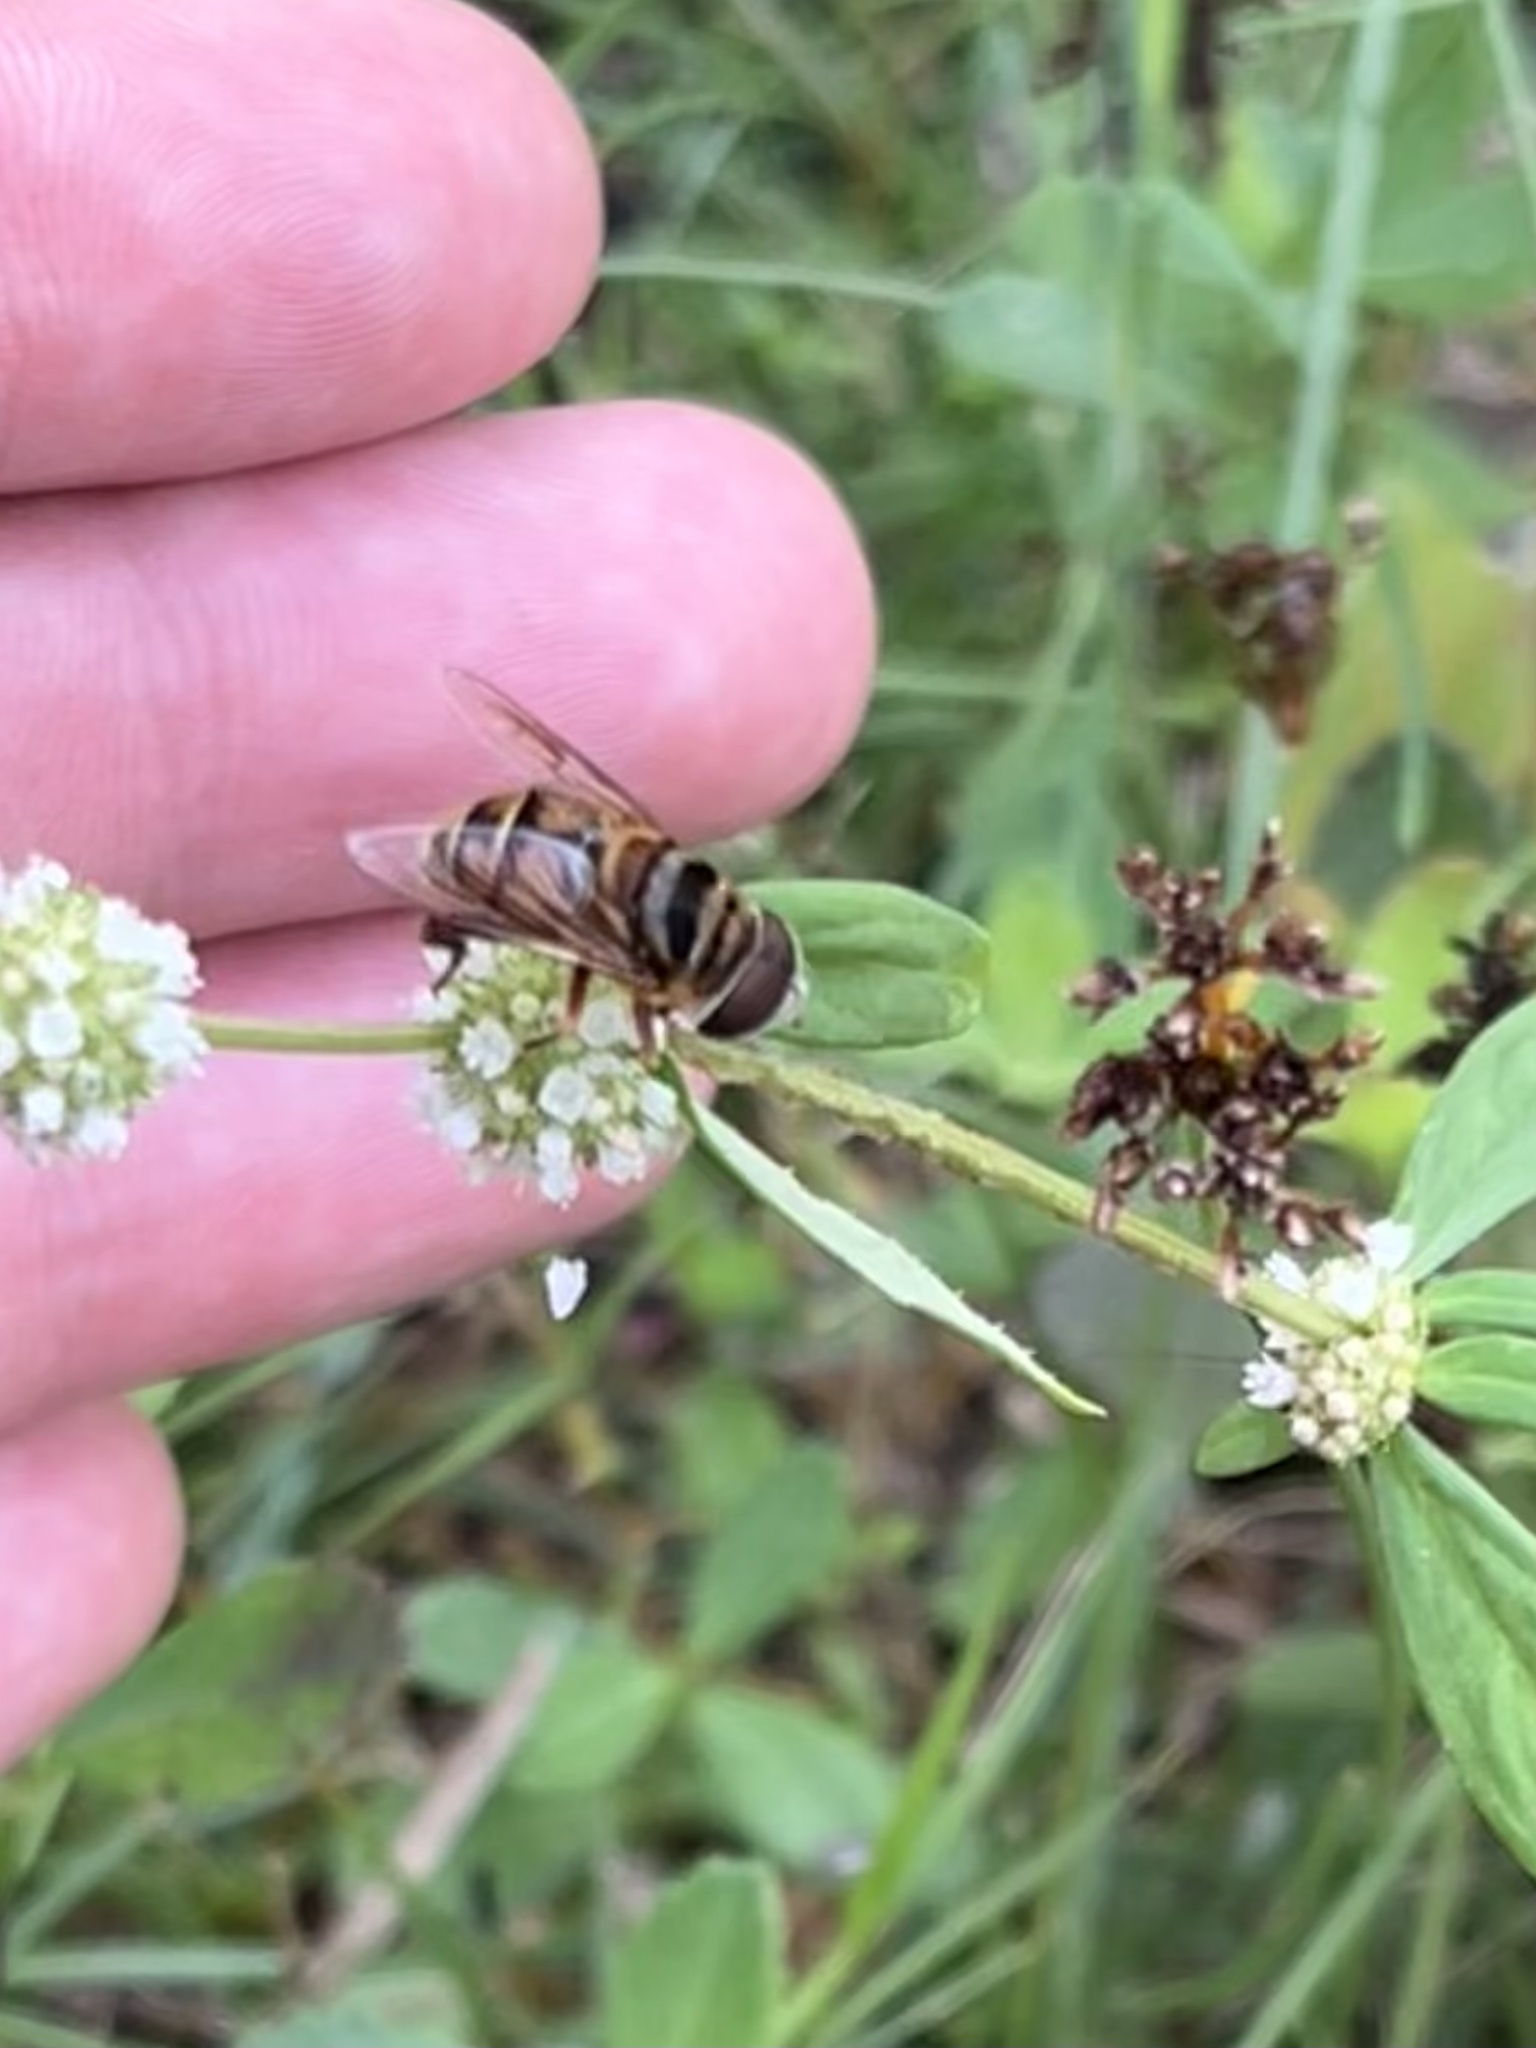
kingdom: Animalia
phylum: Arthropoda
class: Insecta
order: Diptera
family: Syrphidae
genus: Palpada
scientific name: Palpada vinetorum
